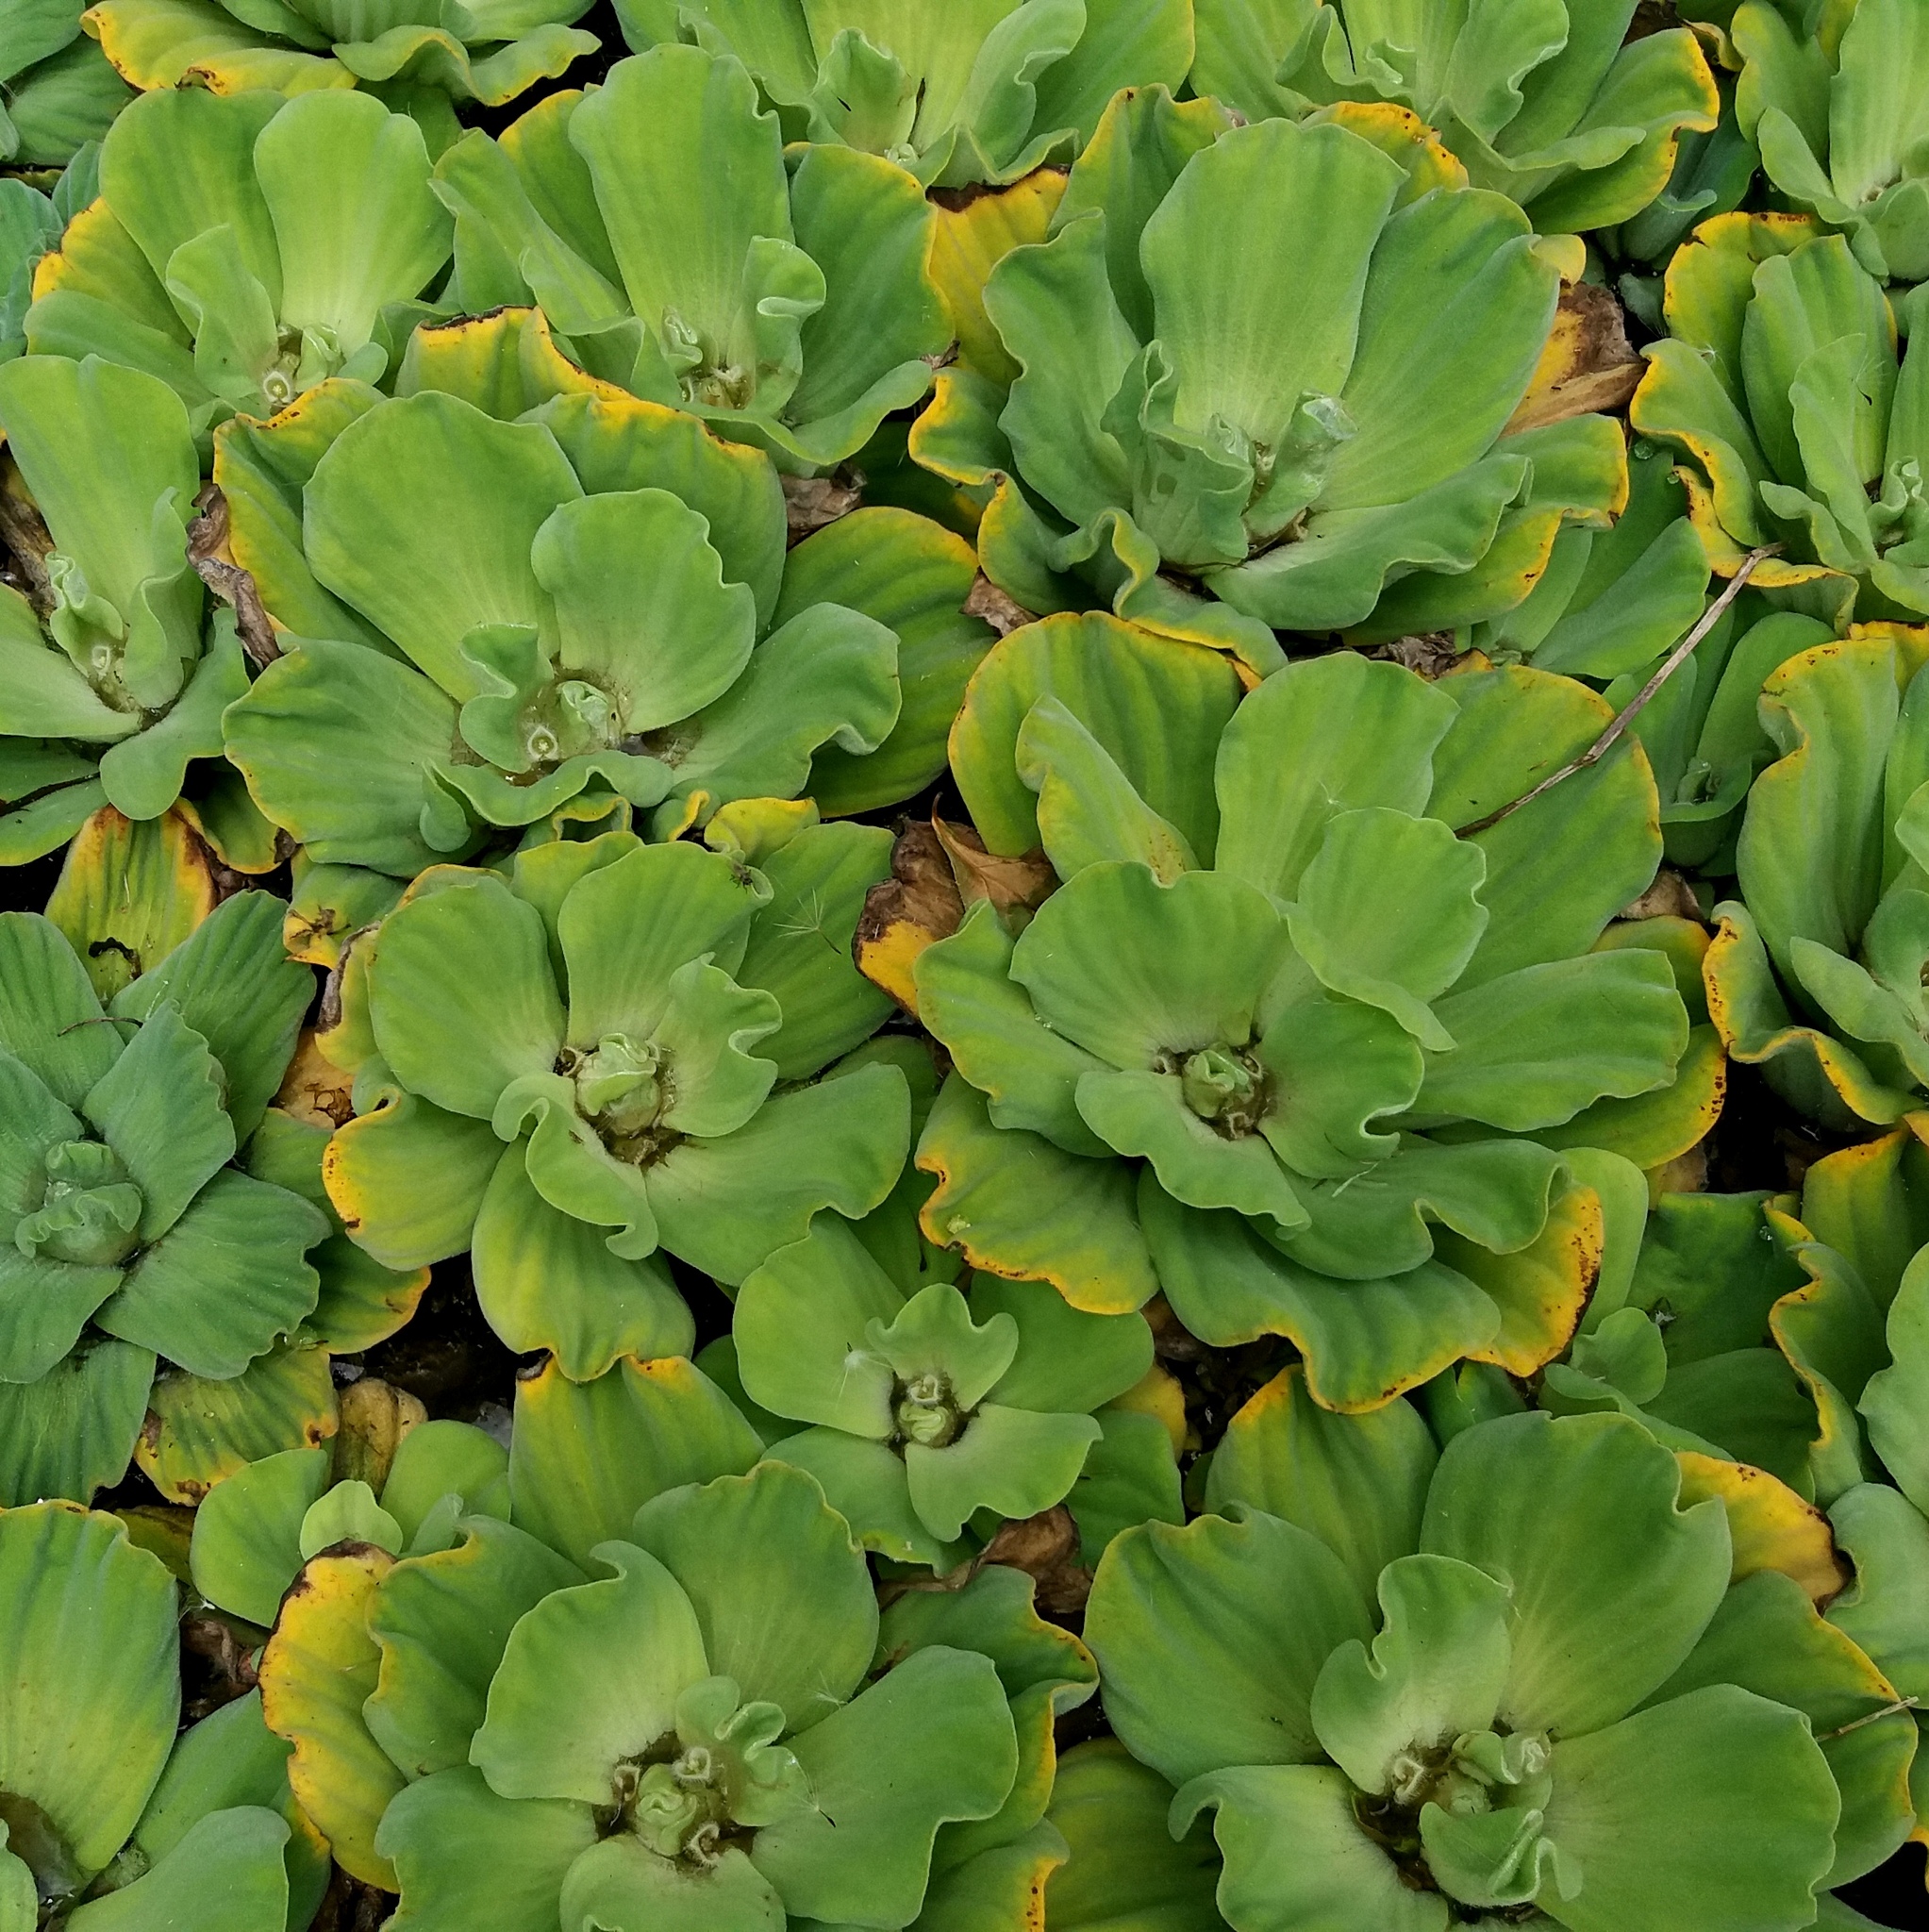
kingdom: Plantae
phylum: Tracheophyta
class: Liliopsida
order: Alismatales
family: Araceae
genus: Pistia
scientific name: Pistia stratiotes
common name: Water lettuce
